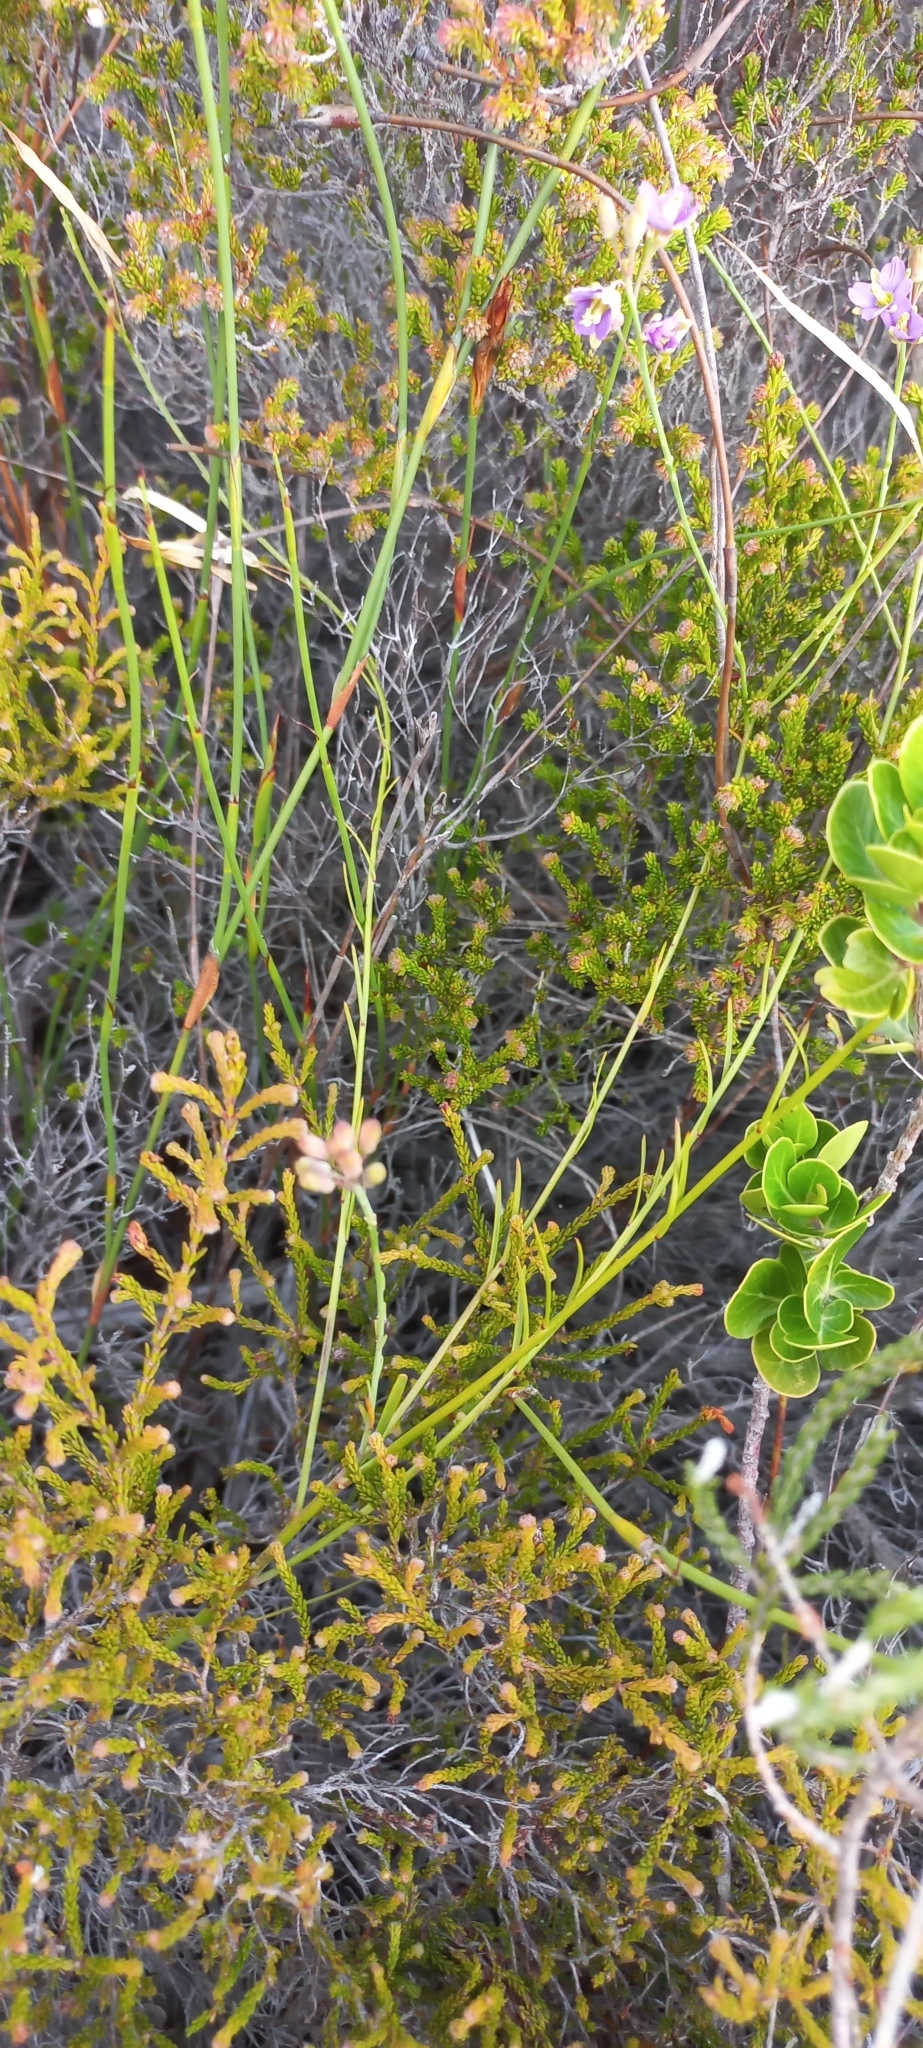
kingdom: Plantae
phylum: Tracheophyta
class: Magnoliopsida
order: Brassicales
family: Brassicaceae
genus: Heliophila
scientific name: Heliophila linearis
